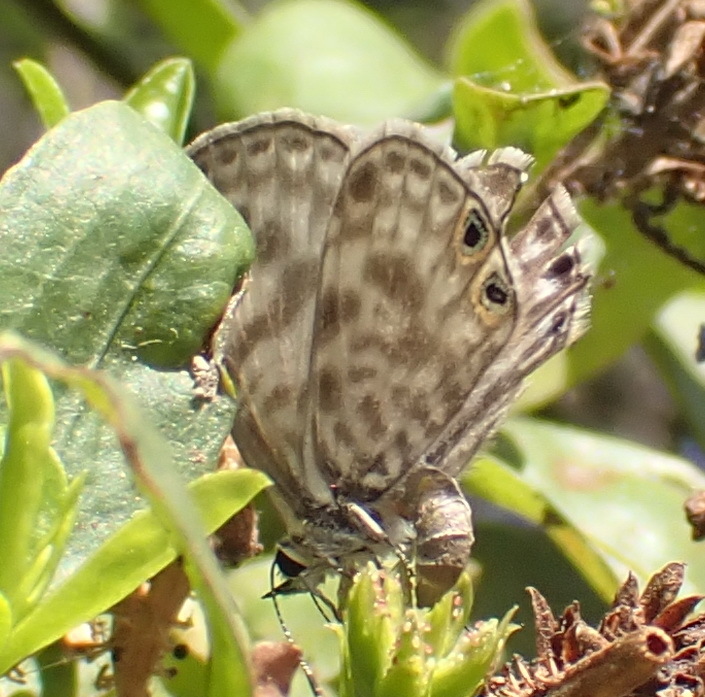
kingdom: Animalia
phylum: Arthropoda
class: Insecta
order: Lepidoptera
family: Lycaenidae
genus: Leptotes
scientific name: Leptotes
